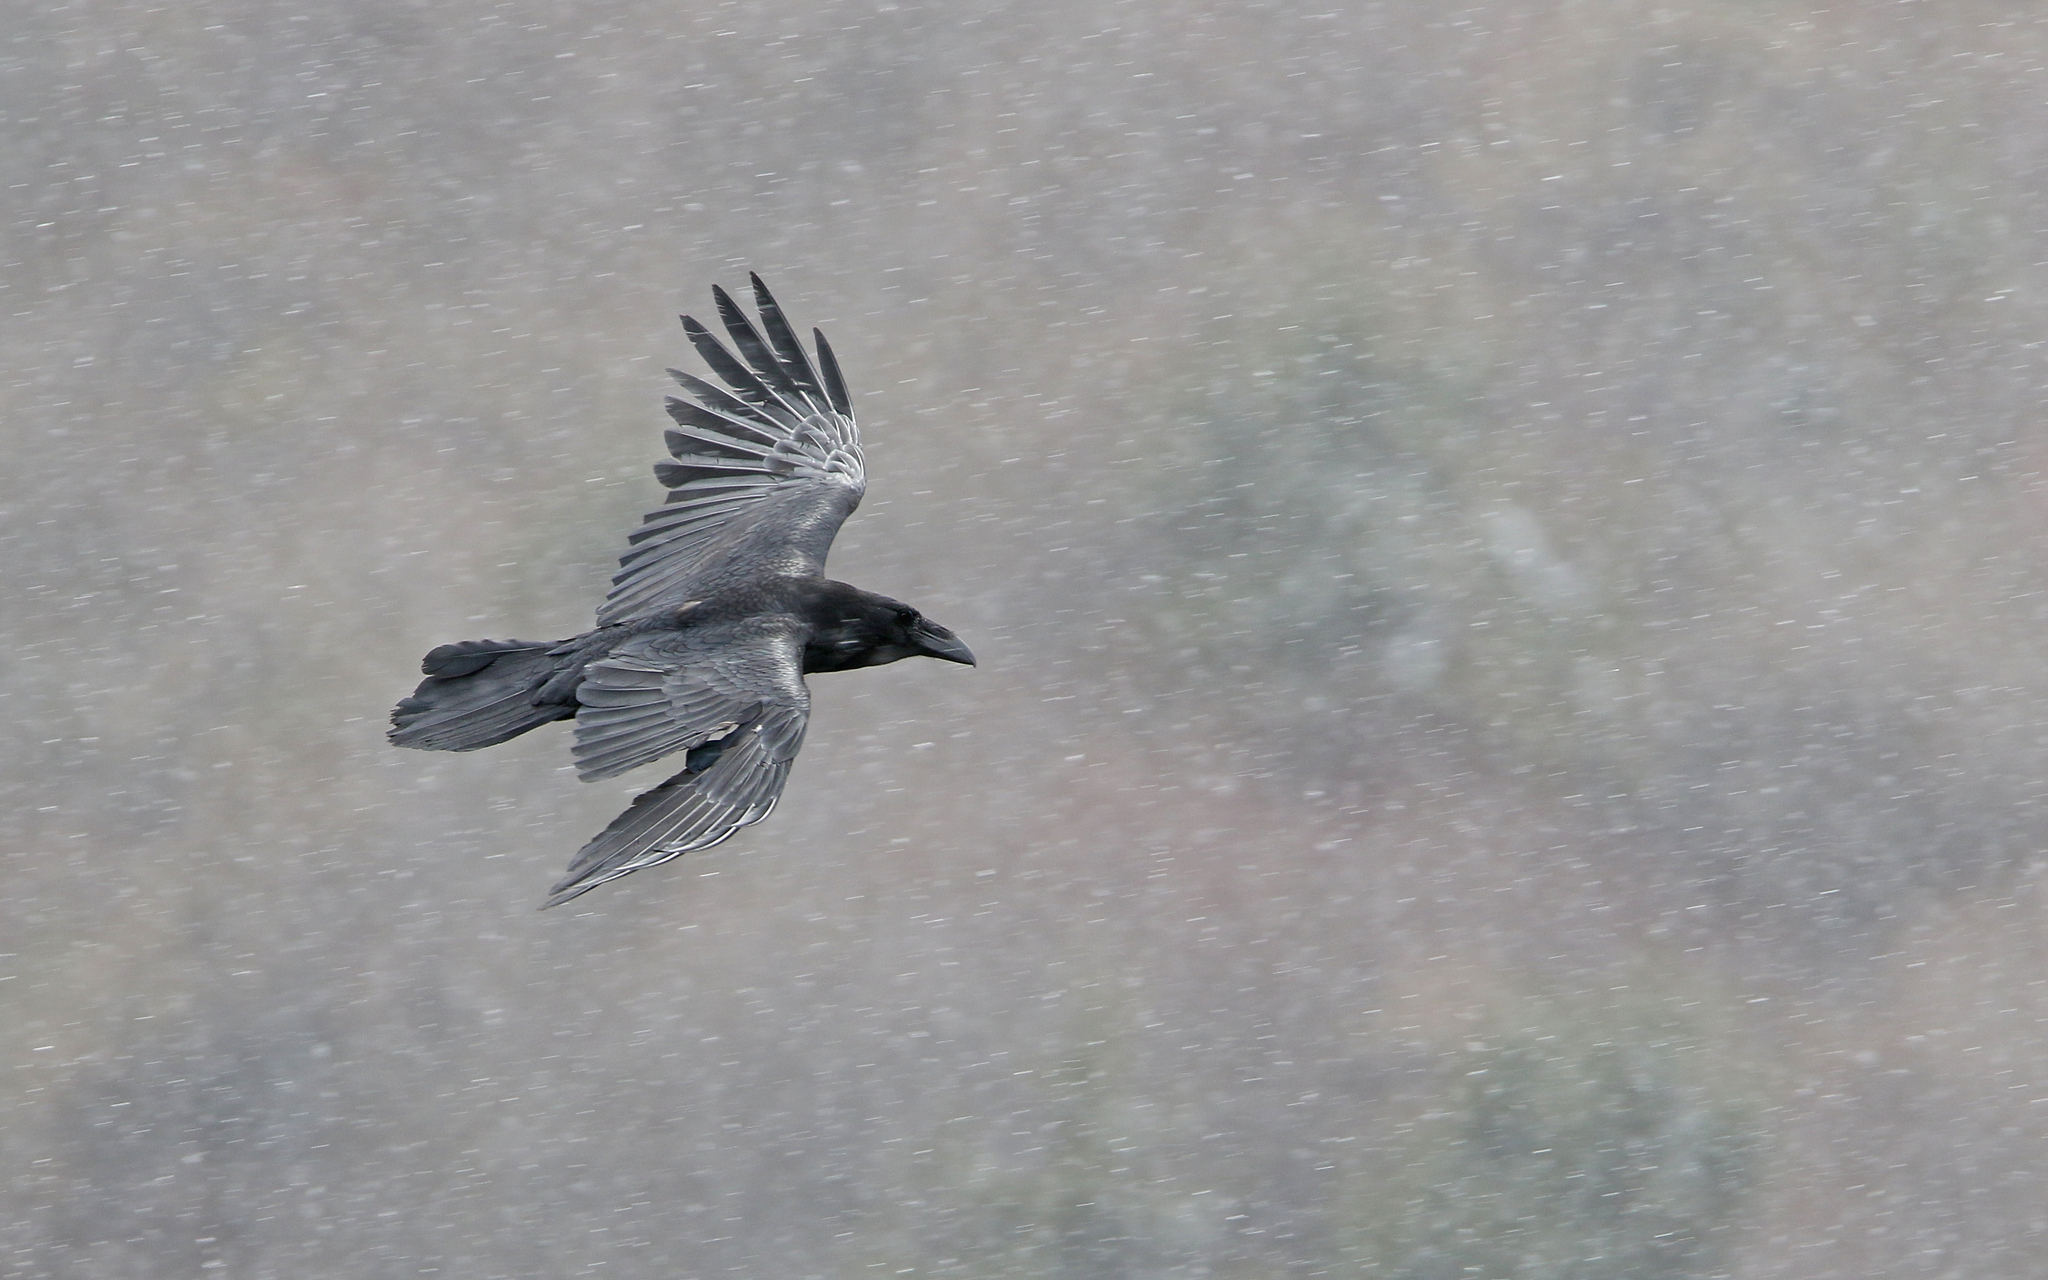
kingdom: Animalia
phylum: Chordata
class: Aves
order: Passeriformes
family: Corvidae
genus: Corvus
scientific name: Corvus corax
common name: Common raven
